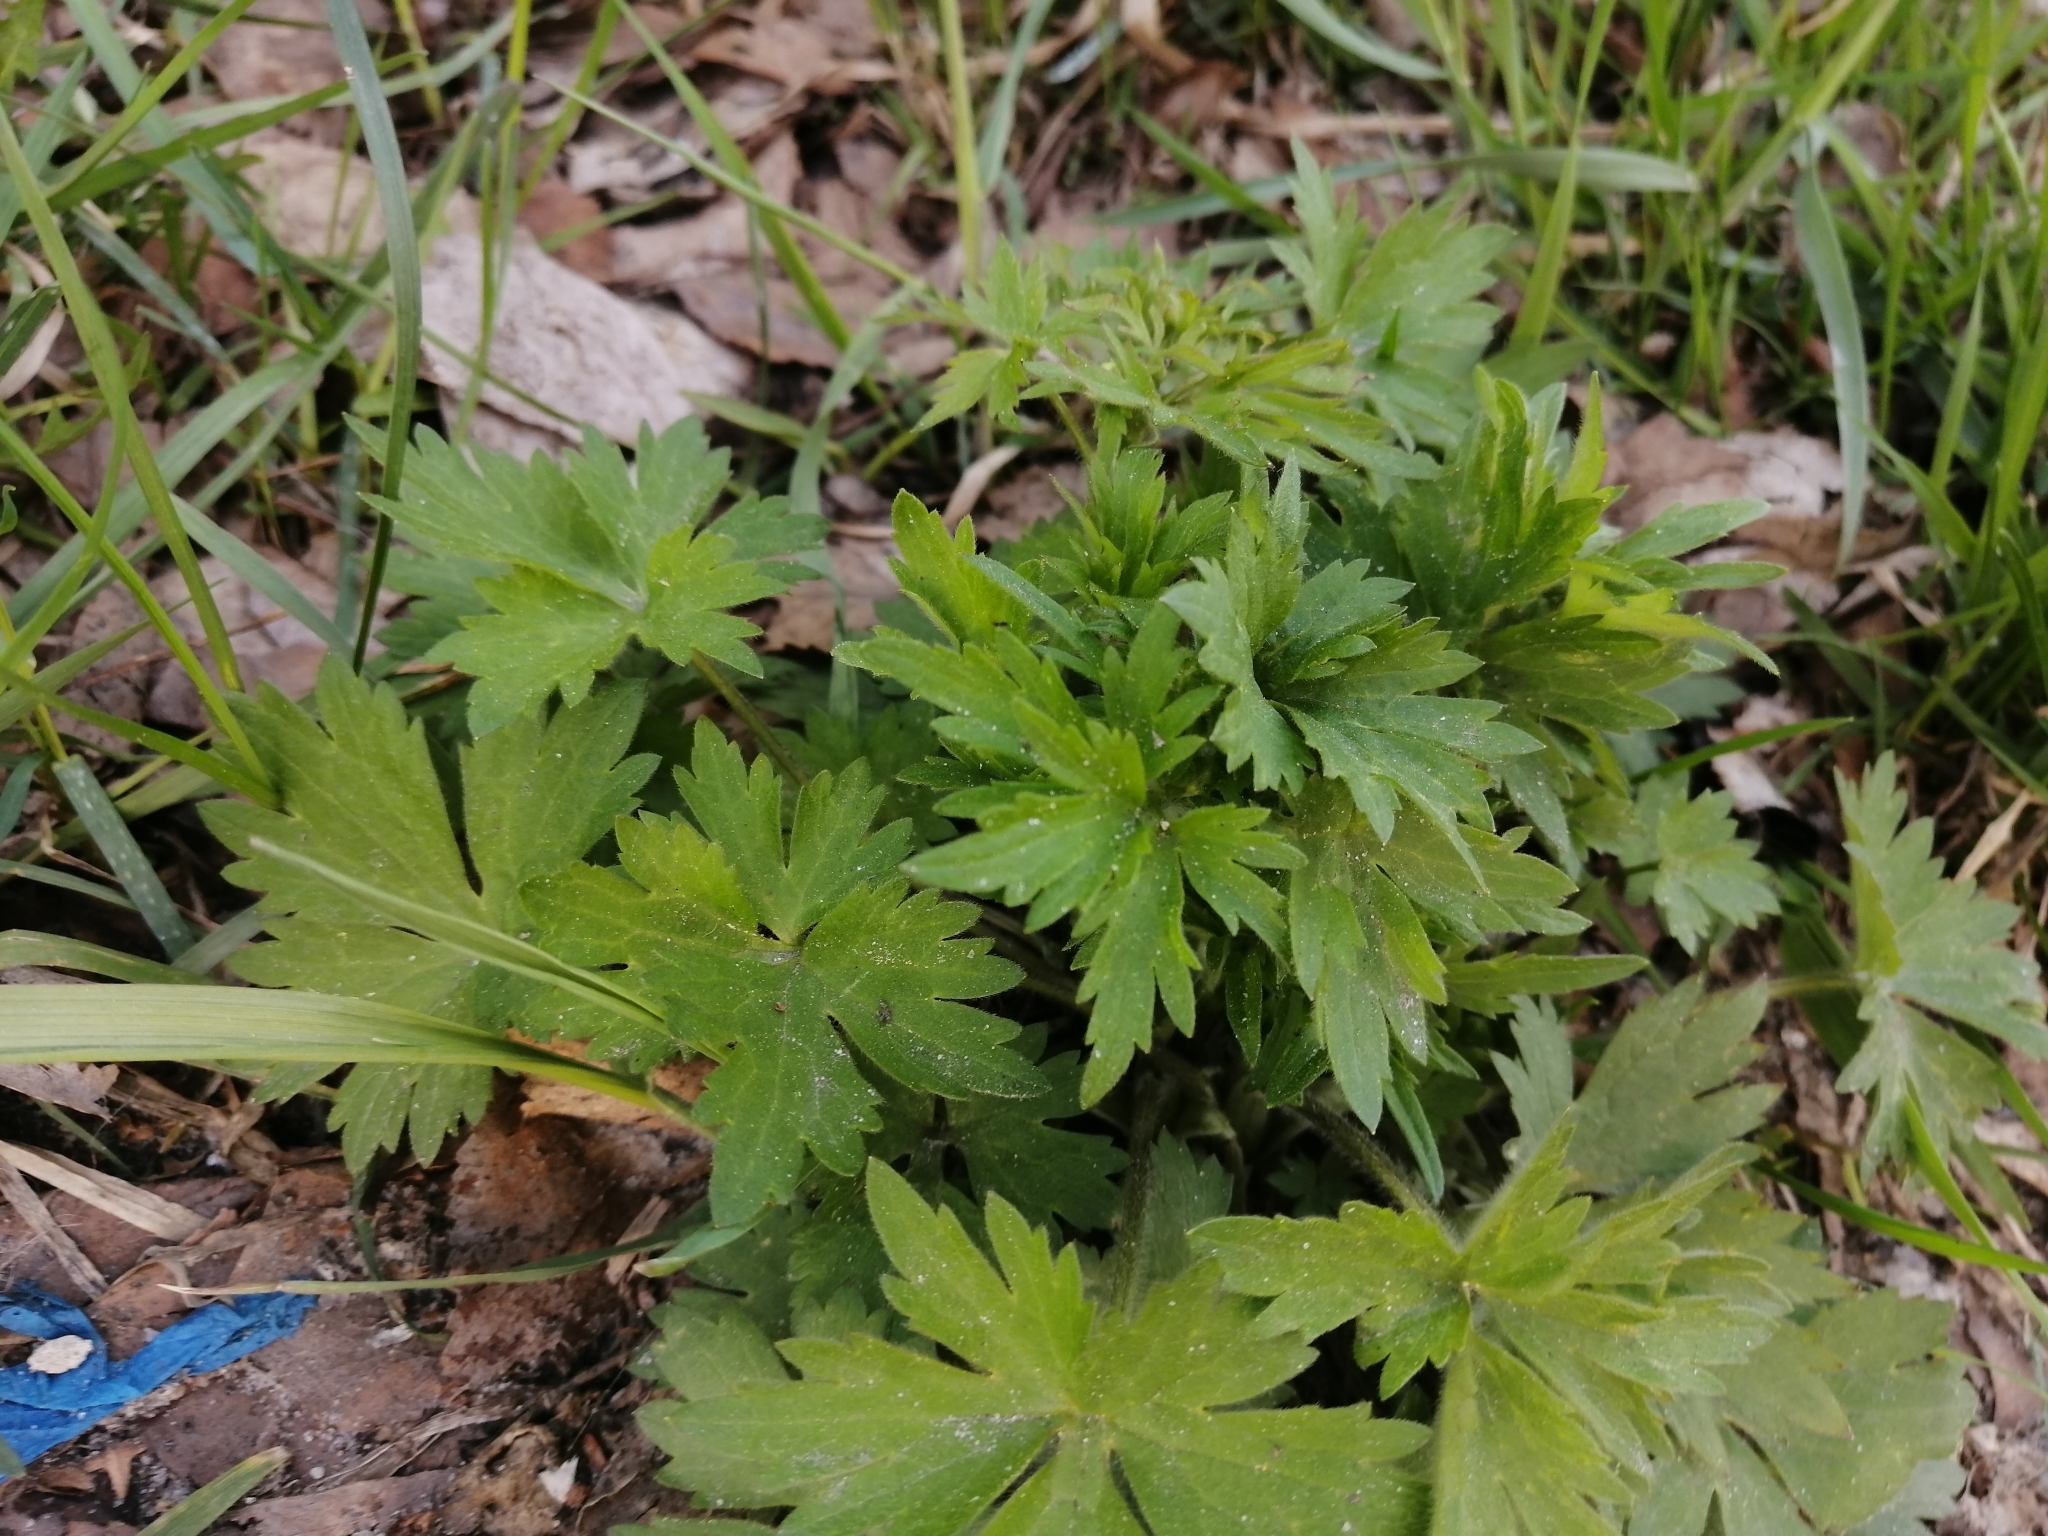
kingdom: Plantae
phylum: Tracheophyta
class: Magnoliopsida
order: Ranunculales
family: Ranunculaceae
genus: Ranunculus
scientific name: Ranunculus propinquus
